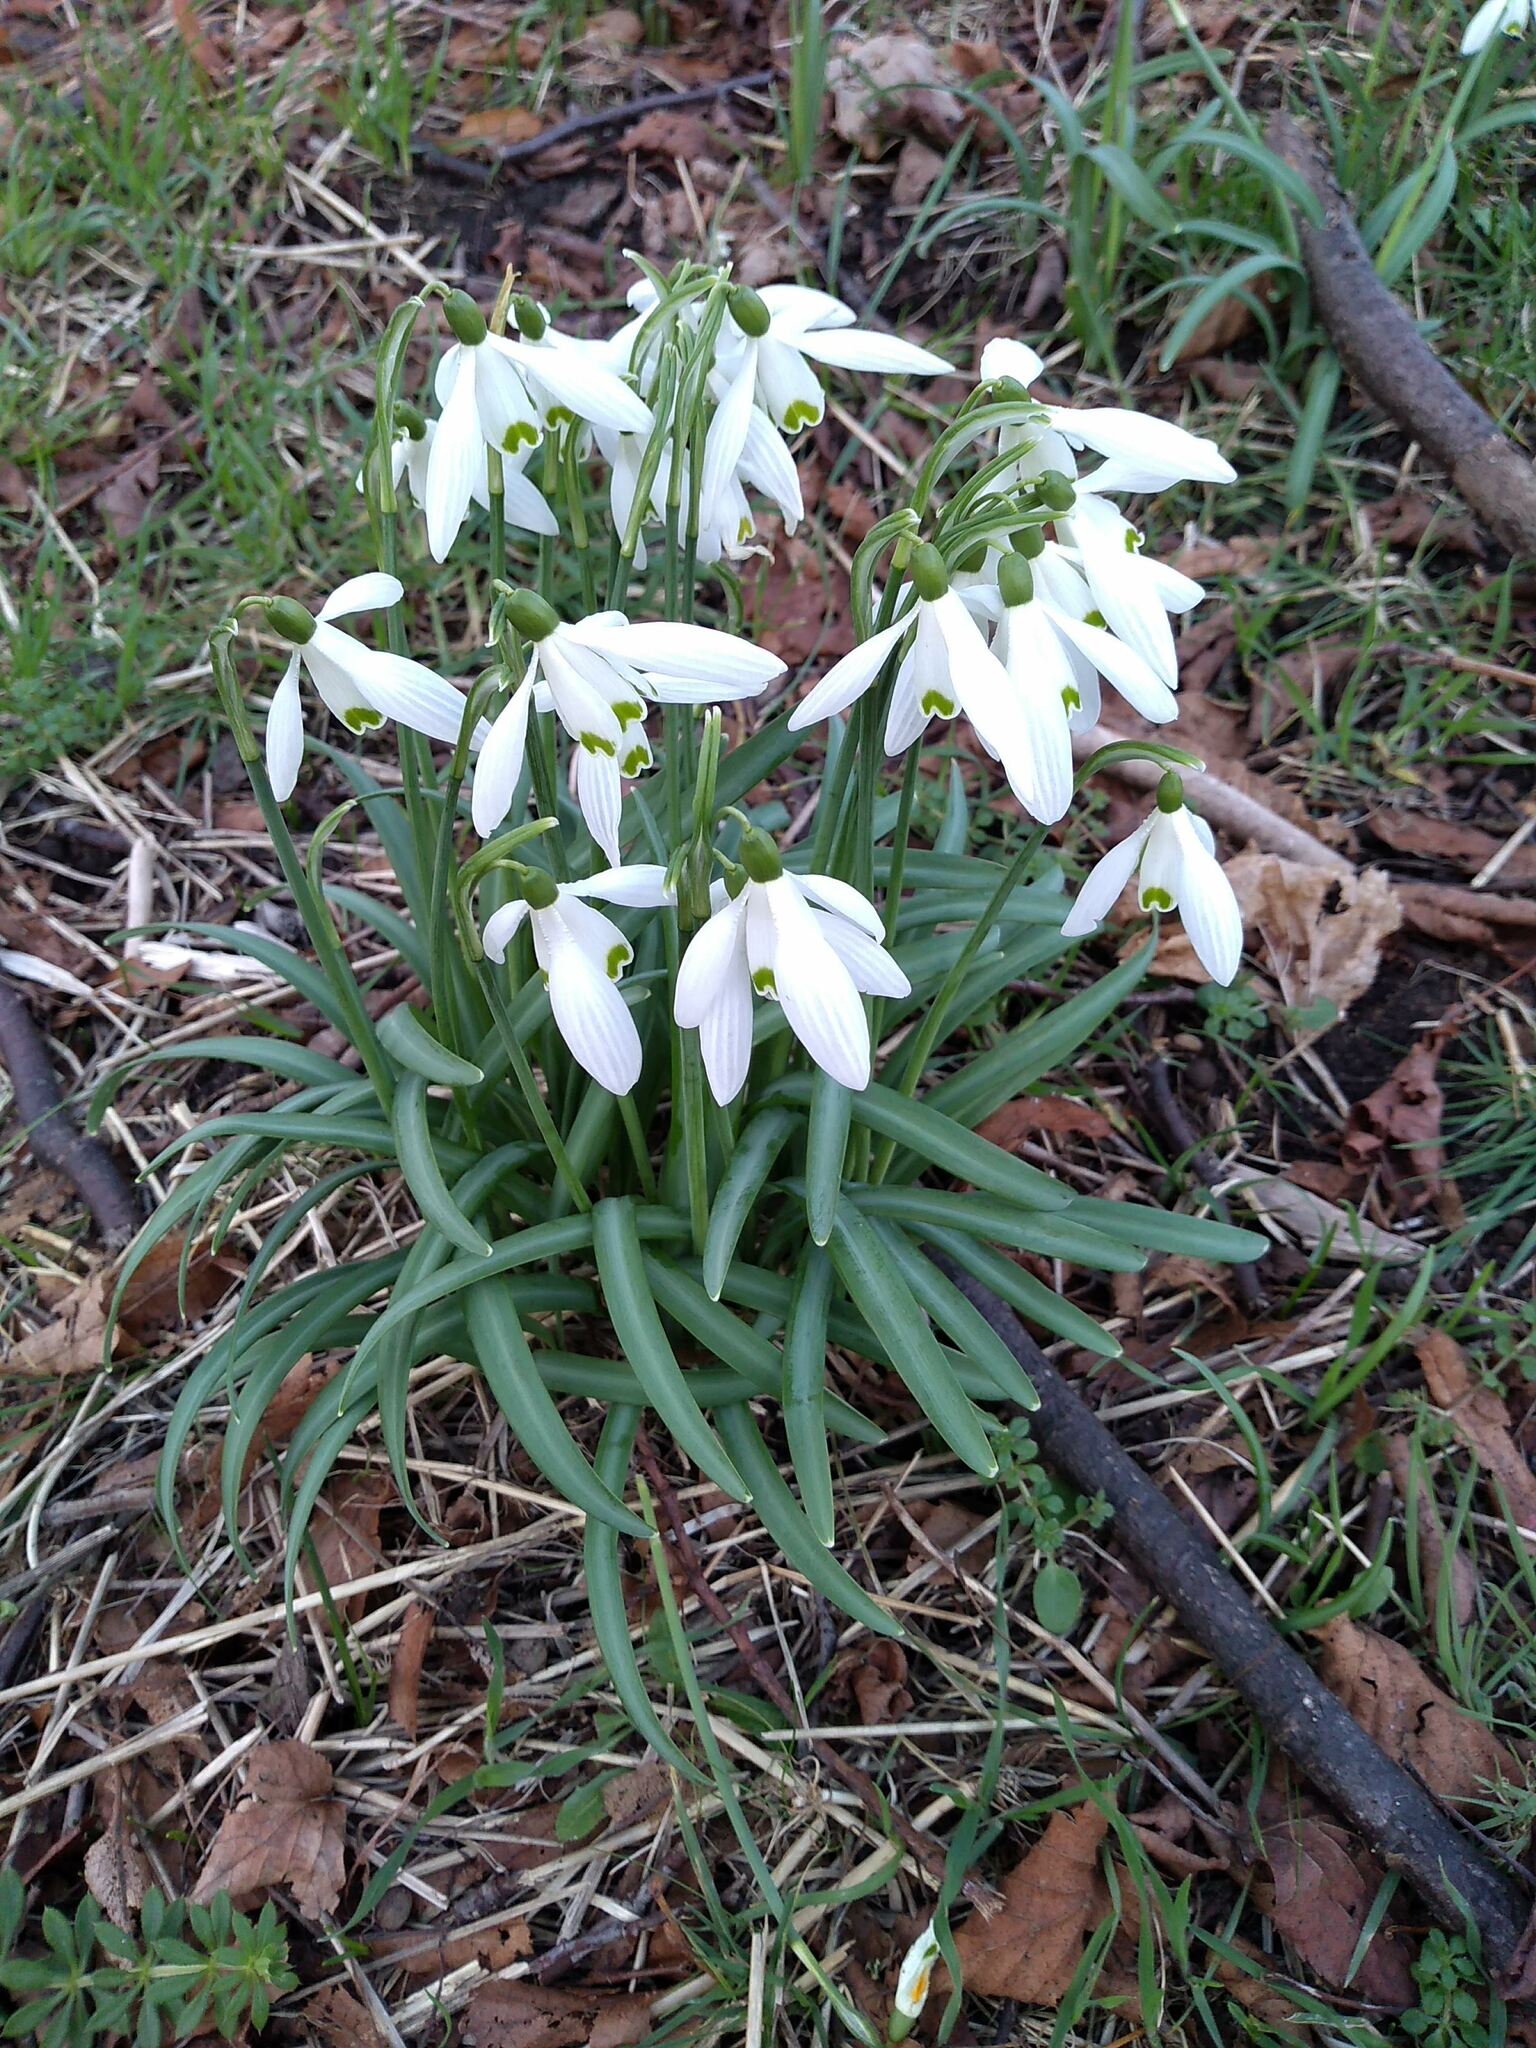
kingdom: Plantae
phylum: Tracheophyta
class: Liliopsida
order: Asparagales
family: Amaryllidaceae
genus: Galanthus
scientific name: Galanthus nivalis
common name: Snowdrop
